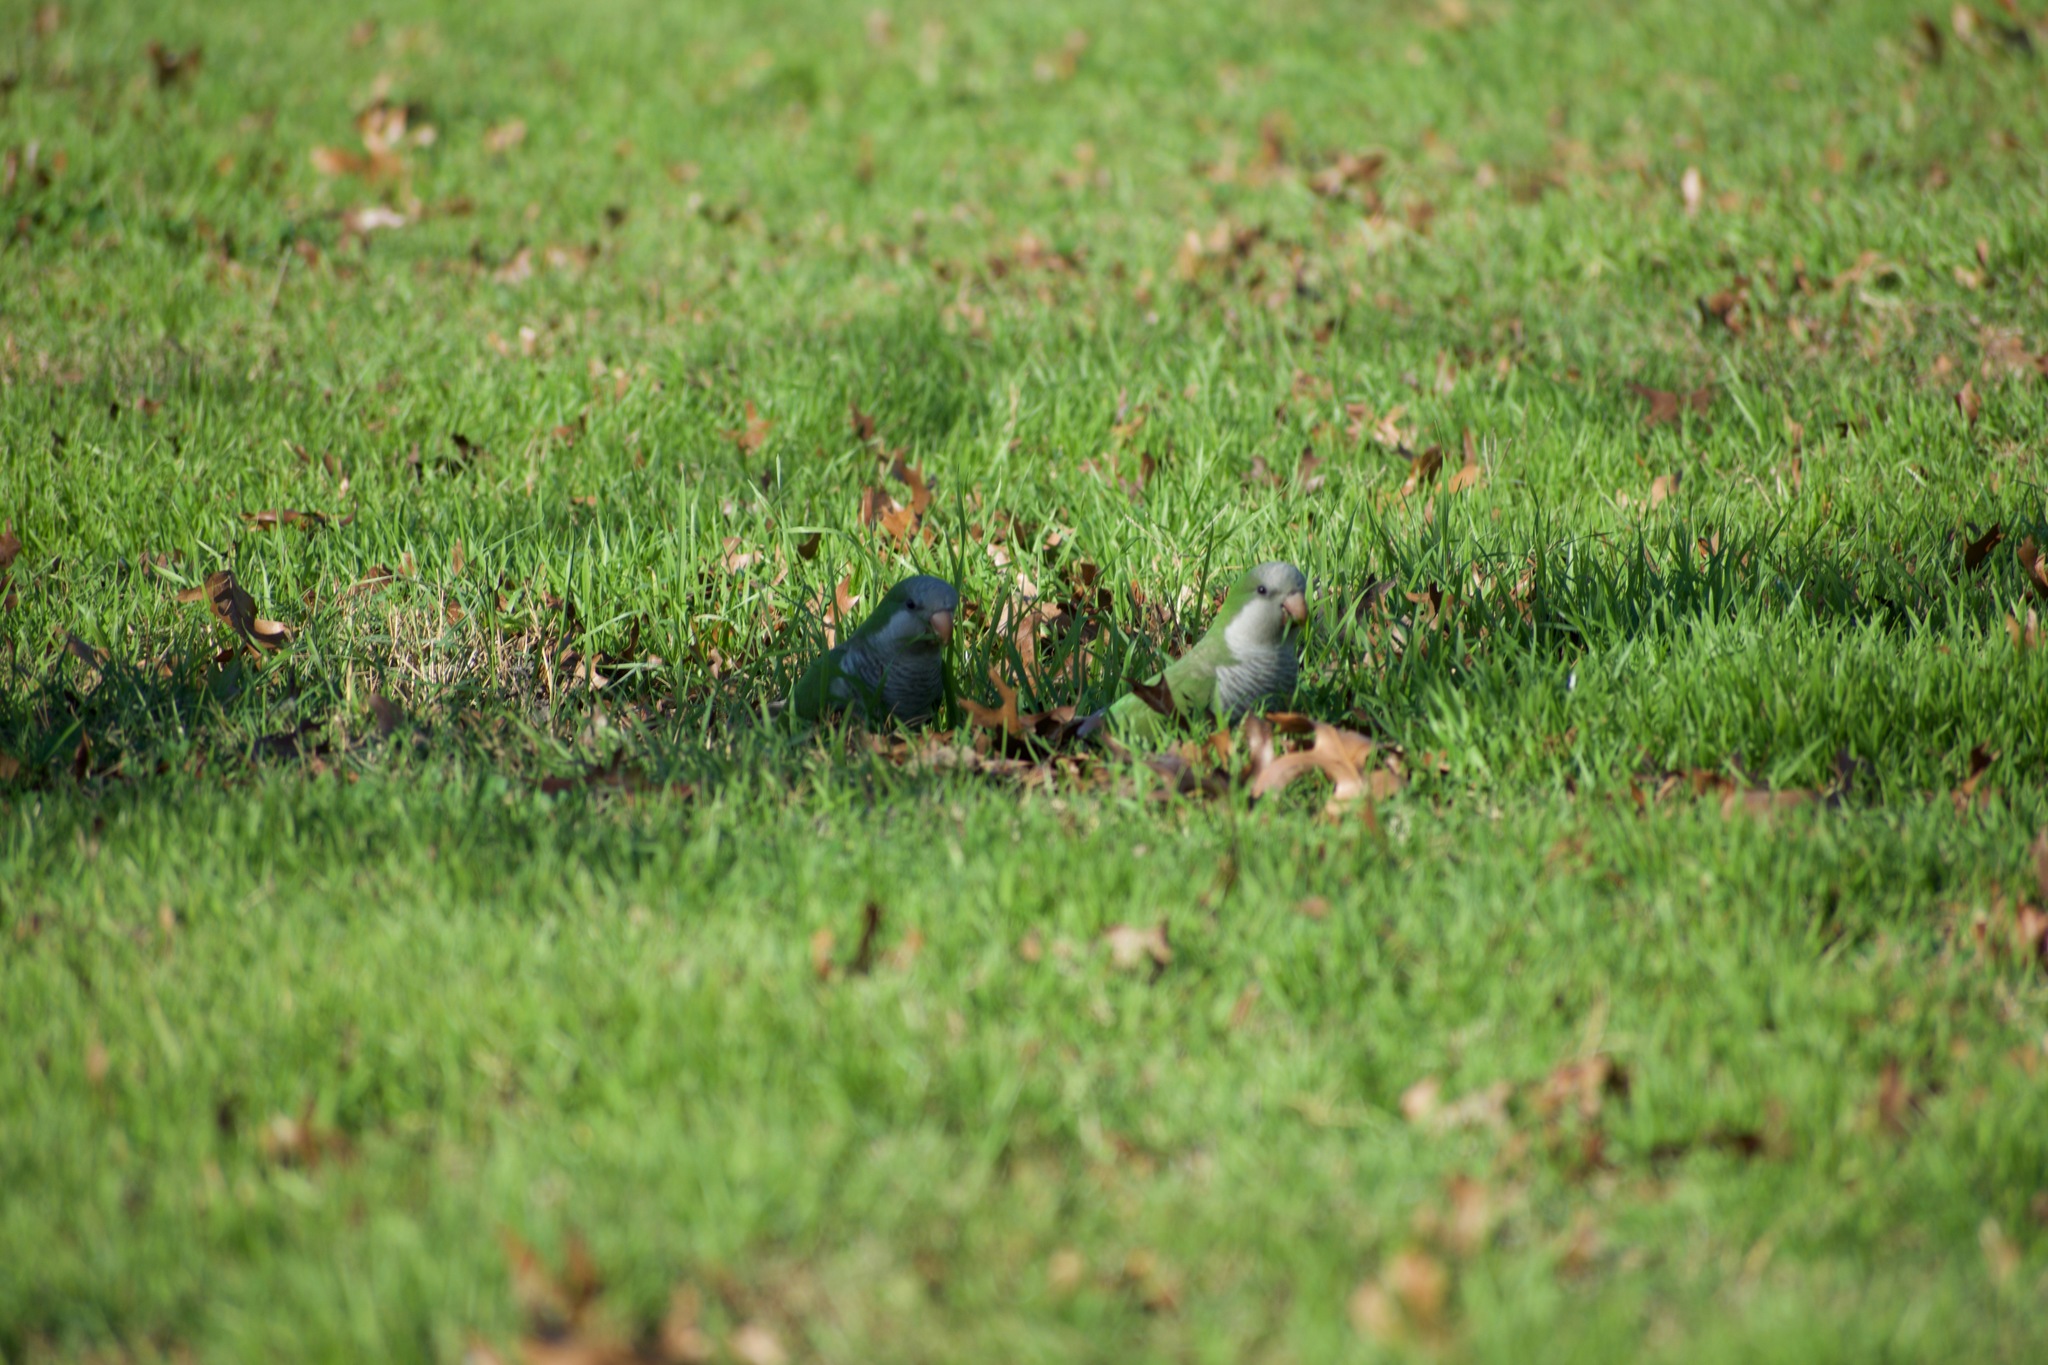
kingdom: Animalia
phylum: Chordata
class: Aves
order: Psittaciformes
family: Psittacidae
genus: Myiopsitta
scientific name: Myiopsitta monachus
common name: Monk parakeet
